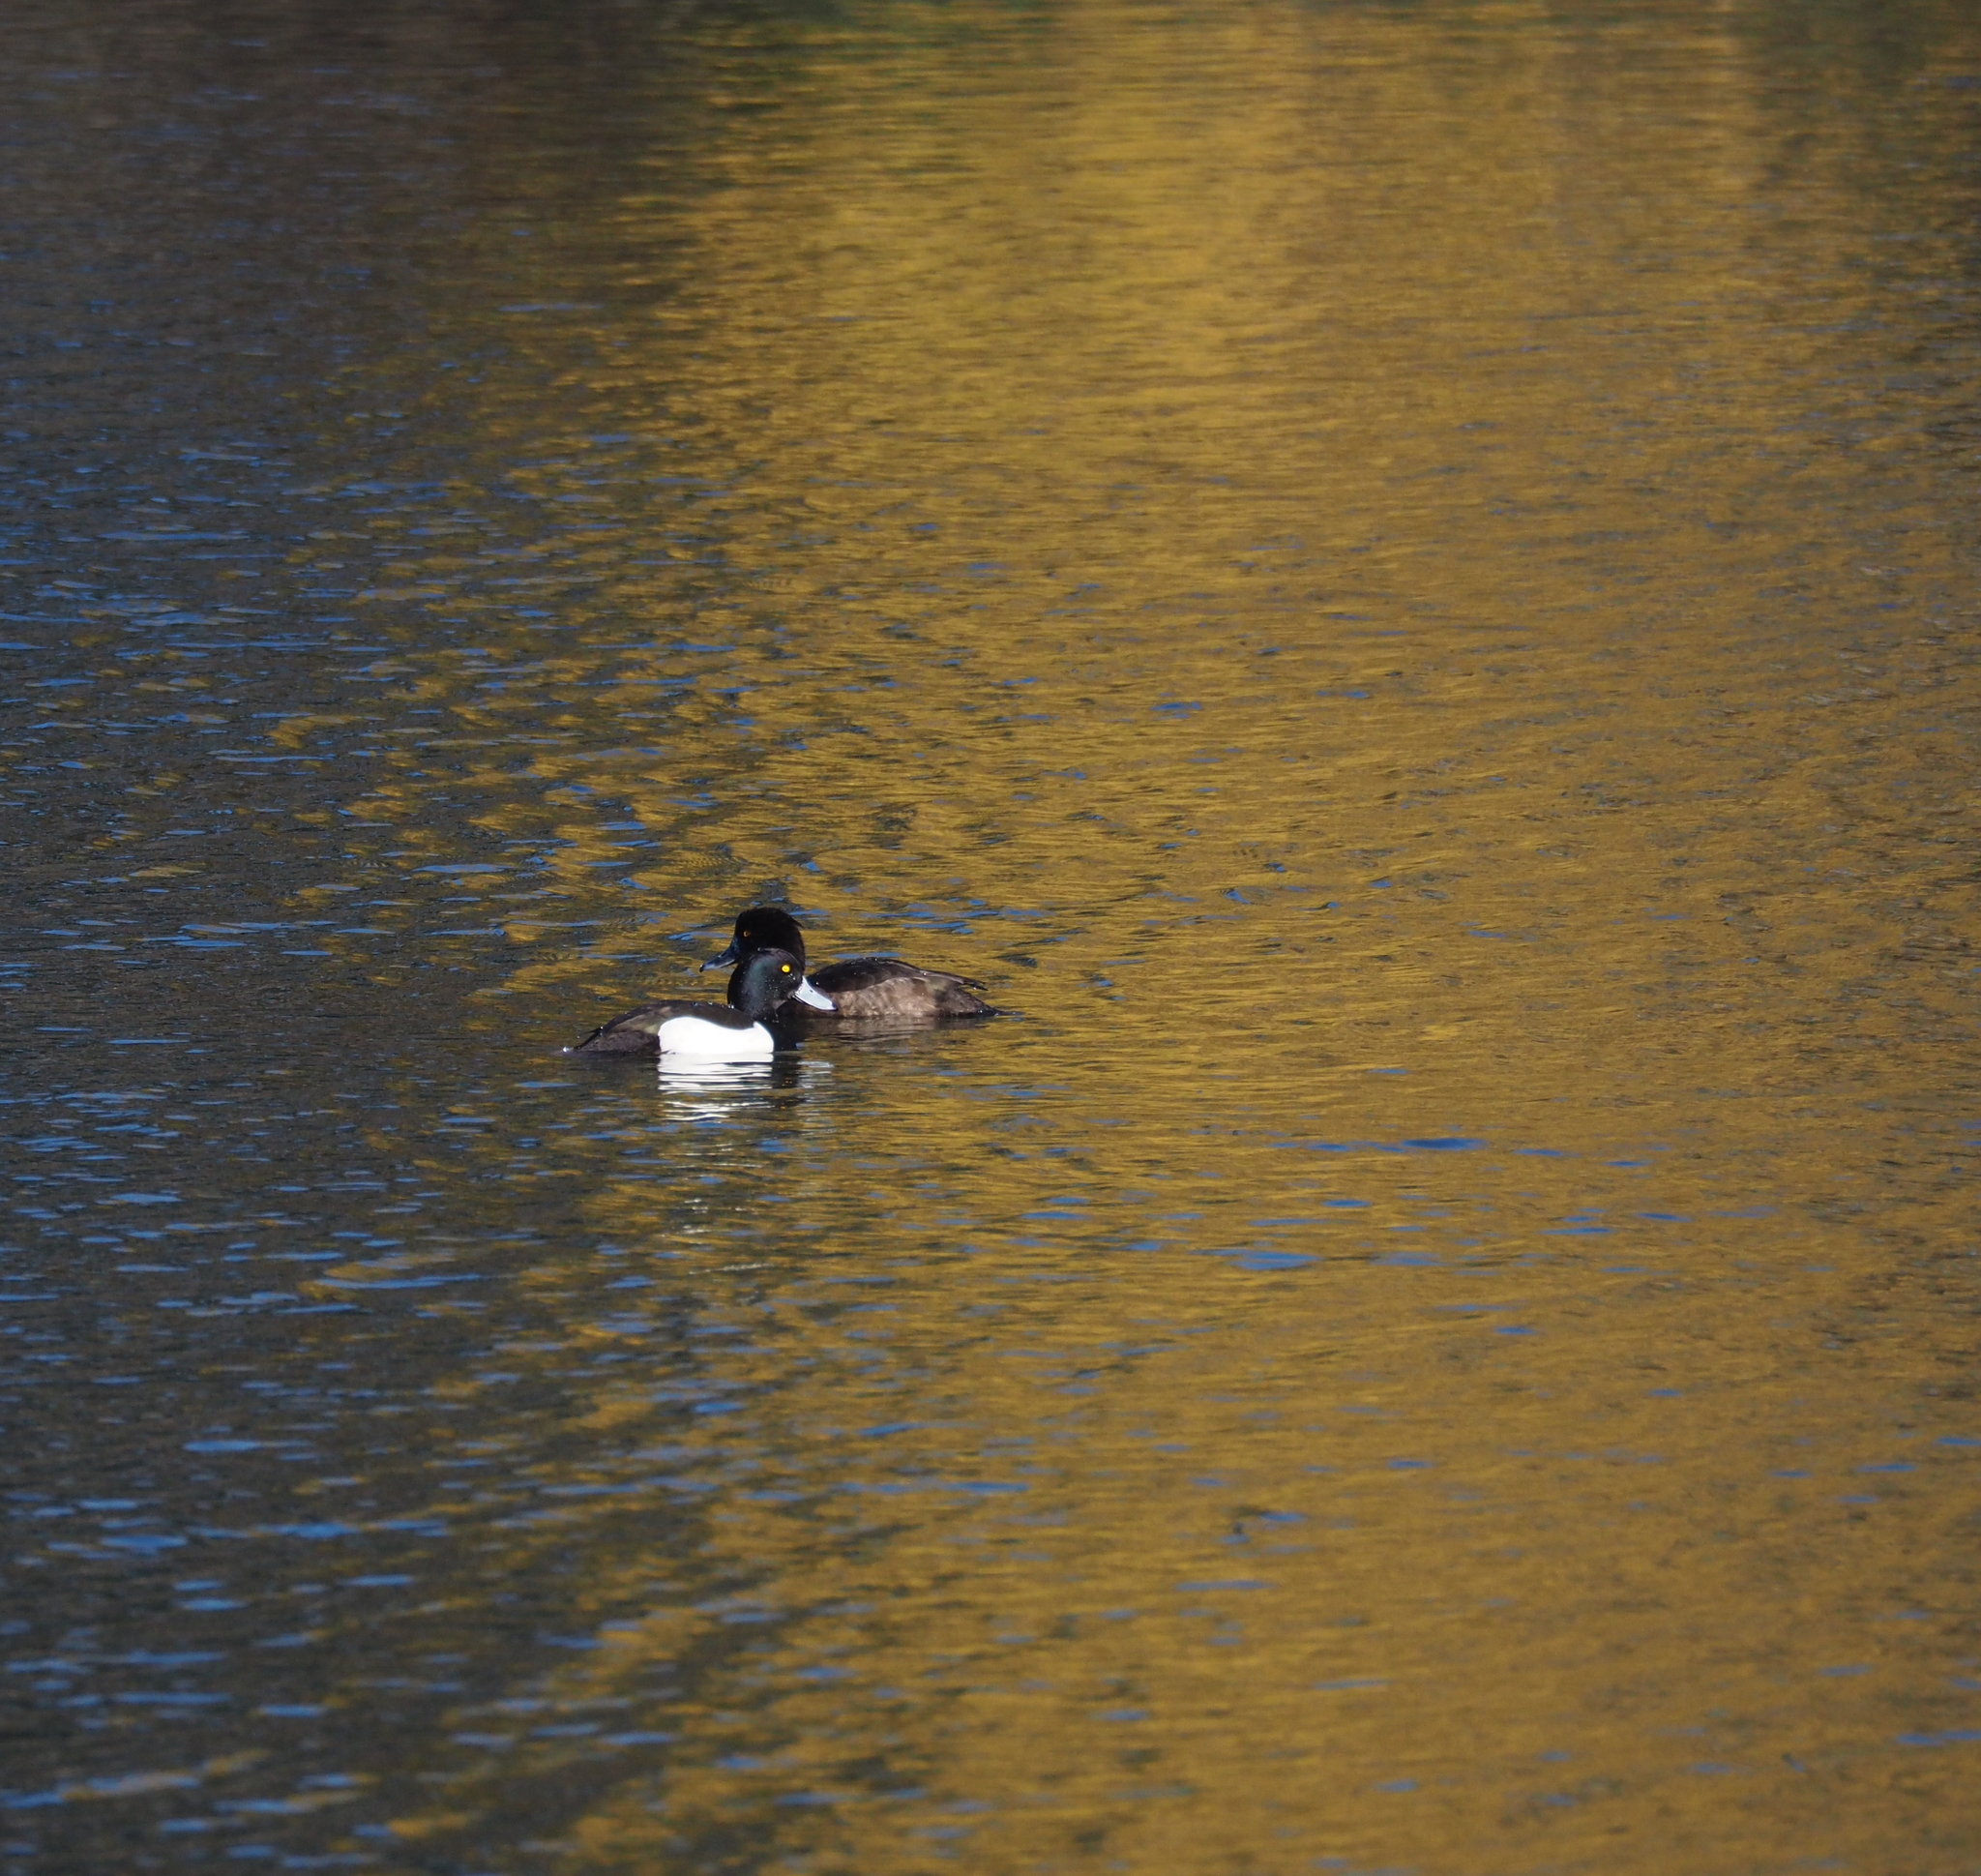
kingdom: Animalia
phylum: Chordata
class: Aves
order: Anseriformes
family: Anatidae
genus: Aythya
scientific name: Aythya fuligula
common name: Tufted duck
